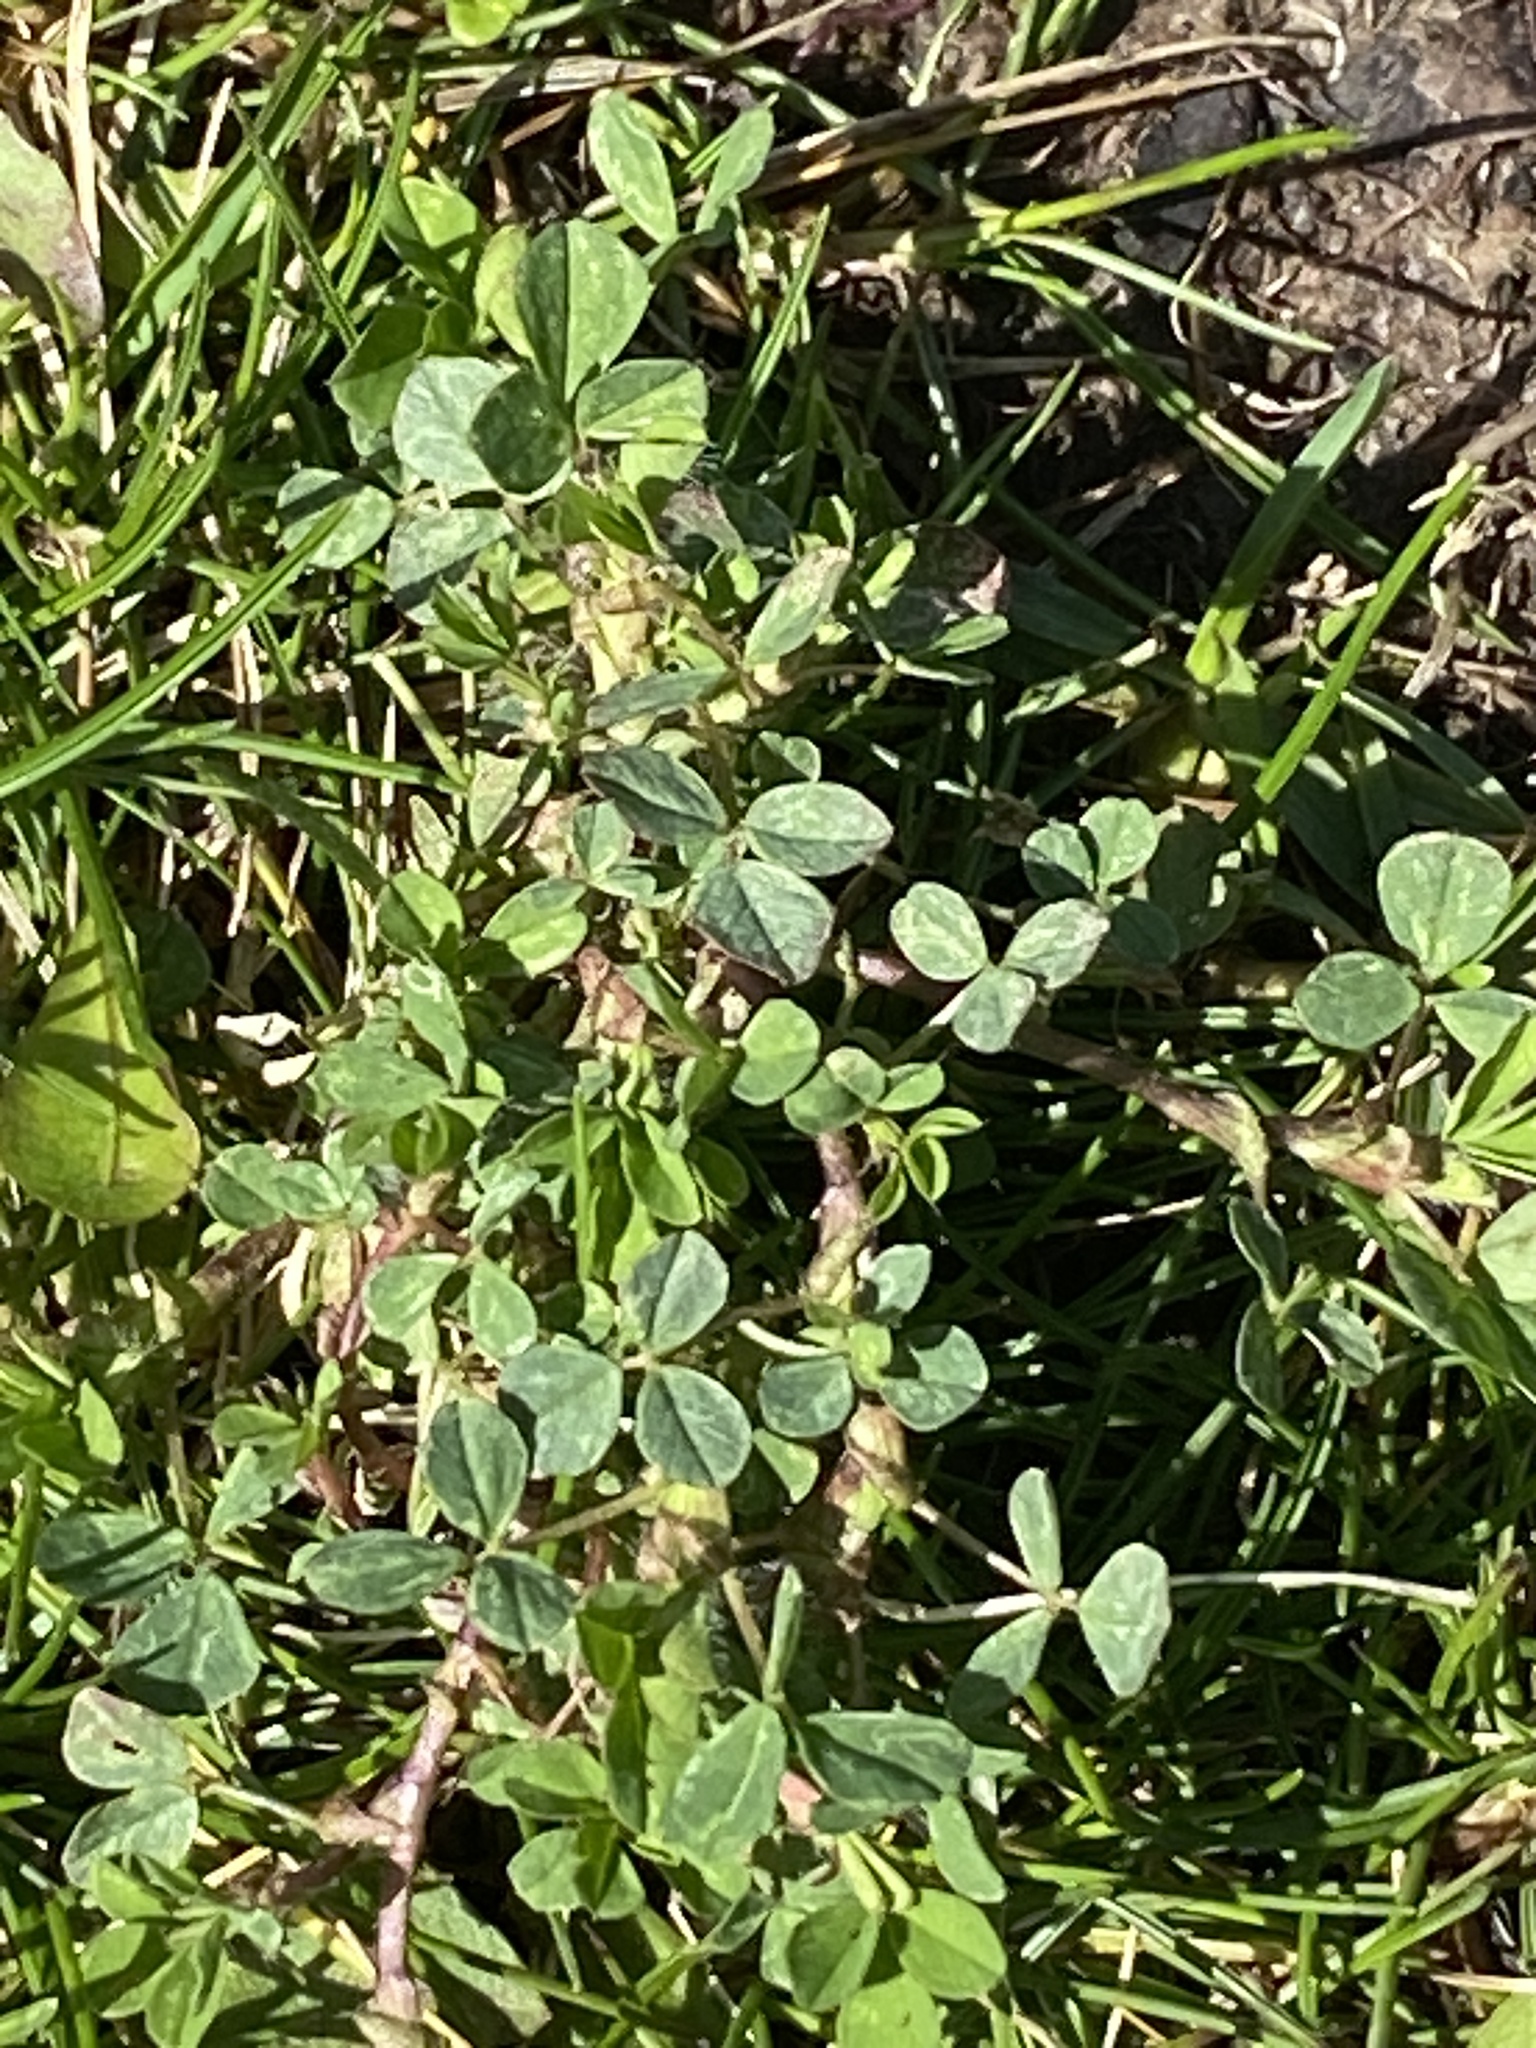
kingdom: Plantae
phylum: Tracheophyta
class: Magnoliopsida
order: Fabales
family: Fabaceae
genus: Medicago
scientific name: Medicago lupulina
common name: Black medick
